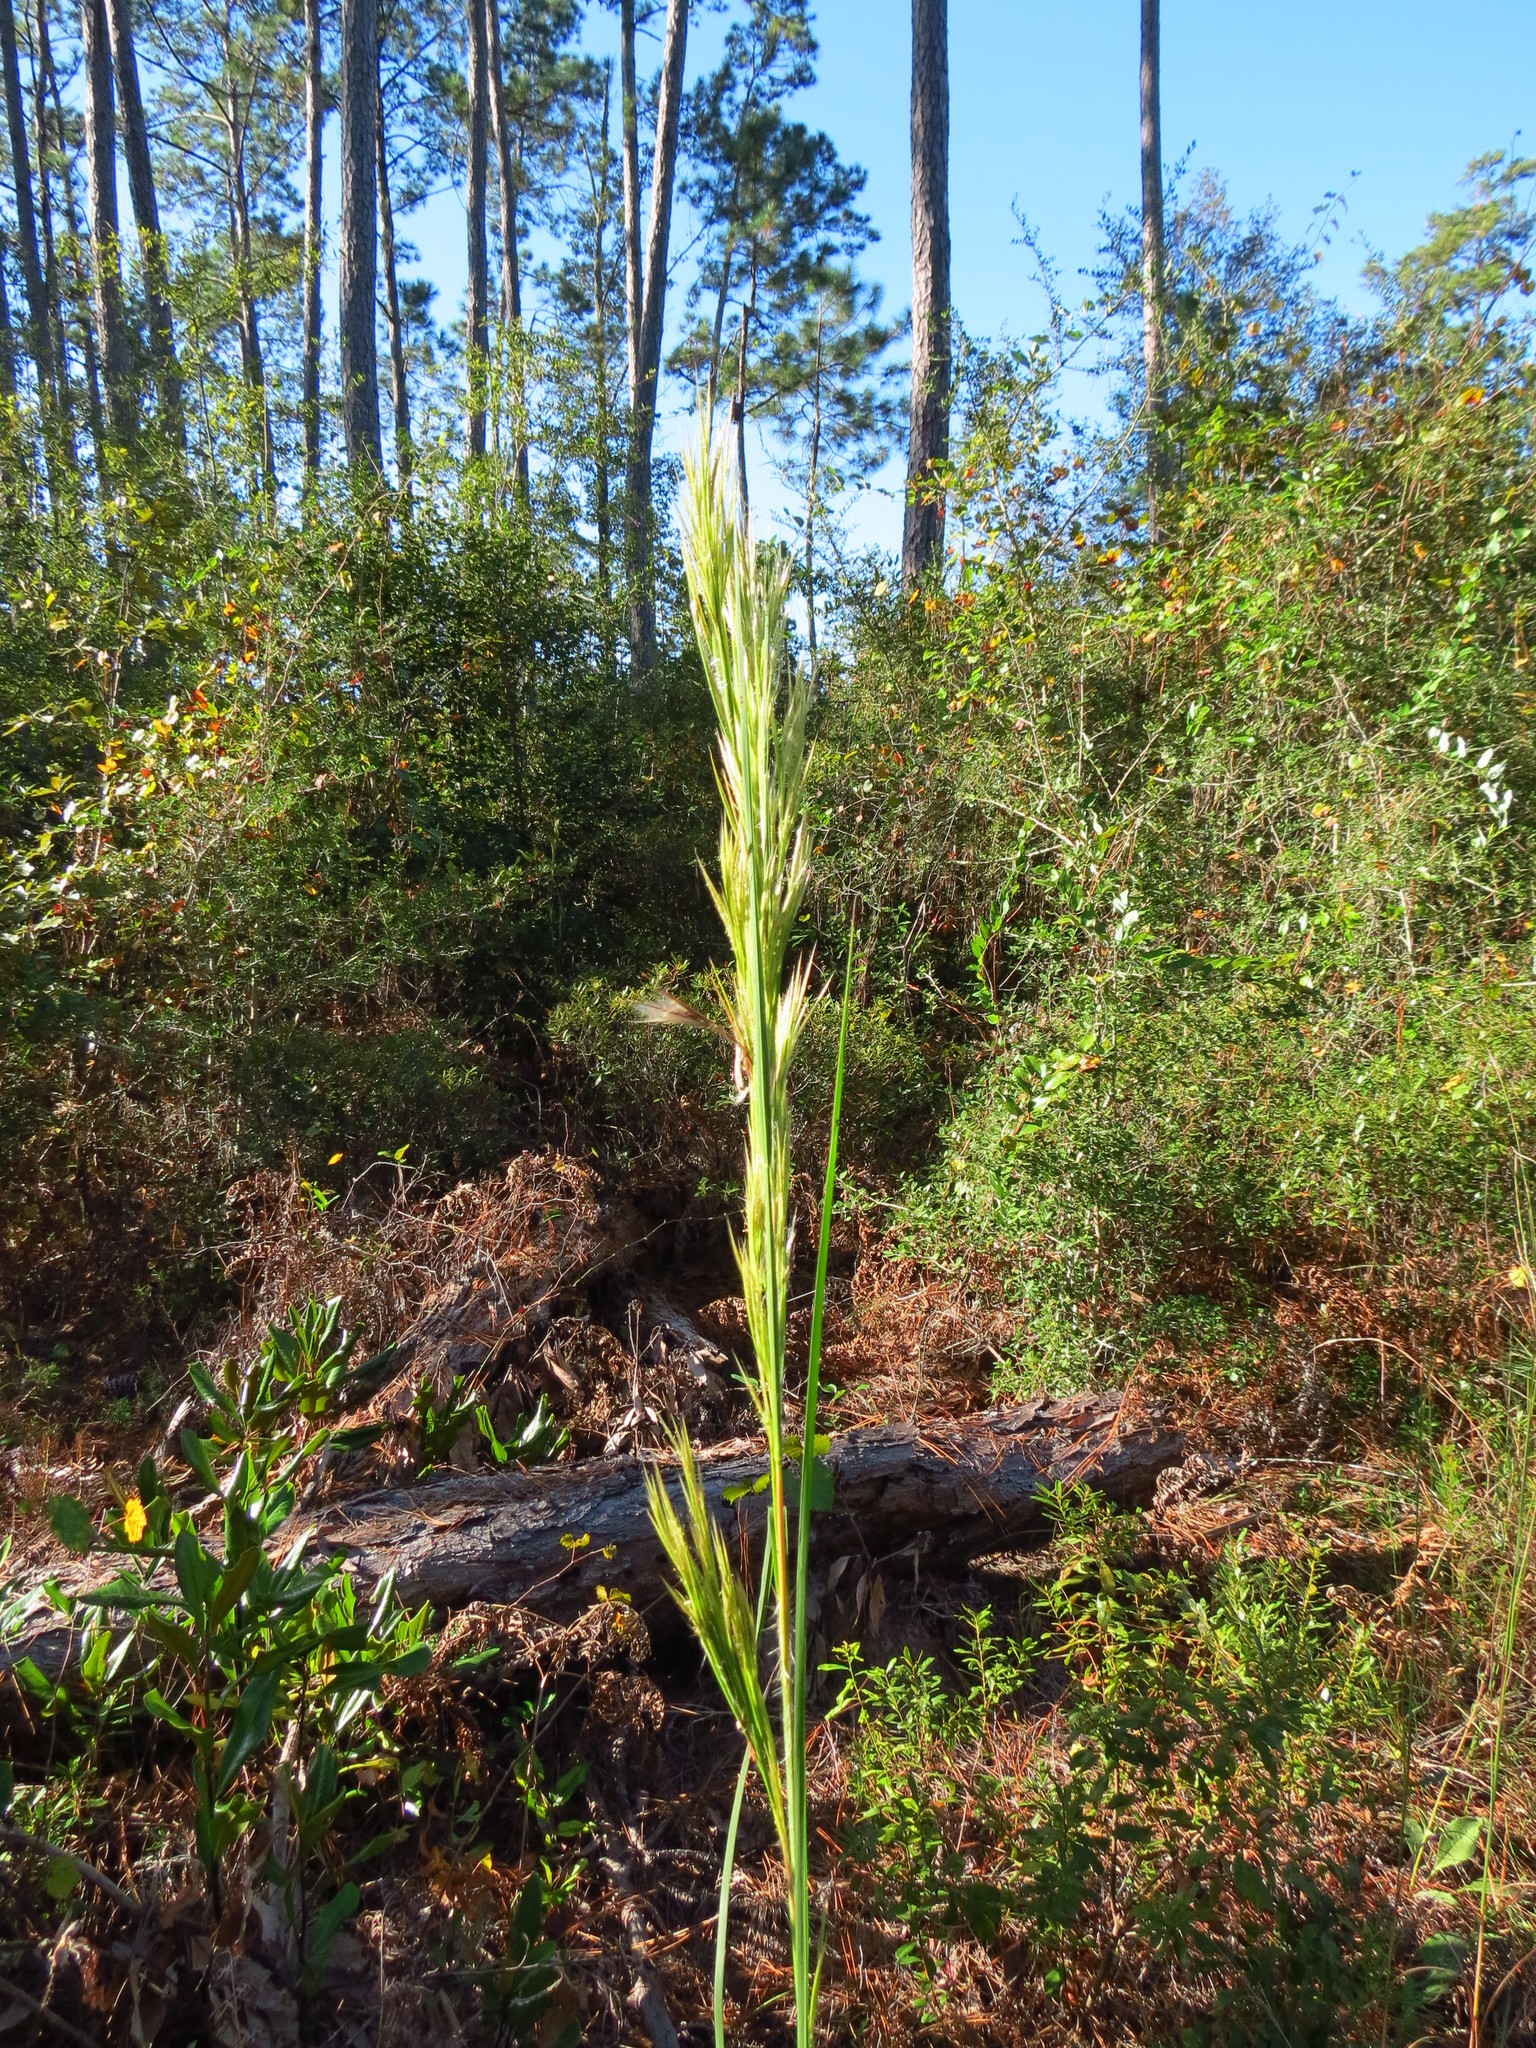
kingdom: Plantae
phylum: Tracheophyta
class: Liliopsida
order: Poales
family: Poaceae
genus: Andropogon
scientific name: Andropogon tenuispatheus
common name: Bushy bluestem
